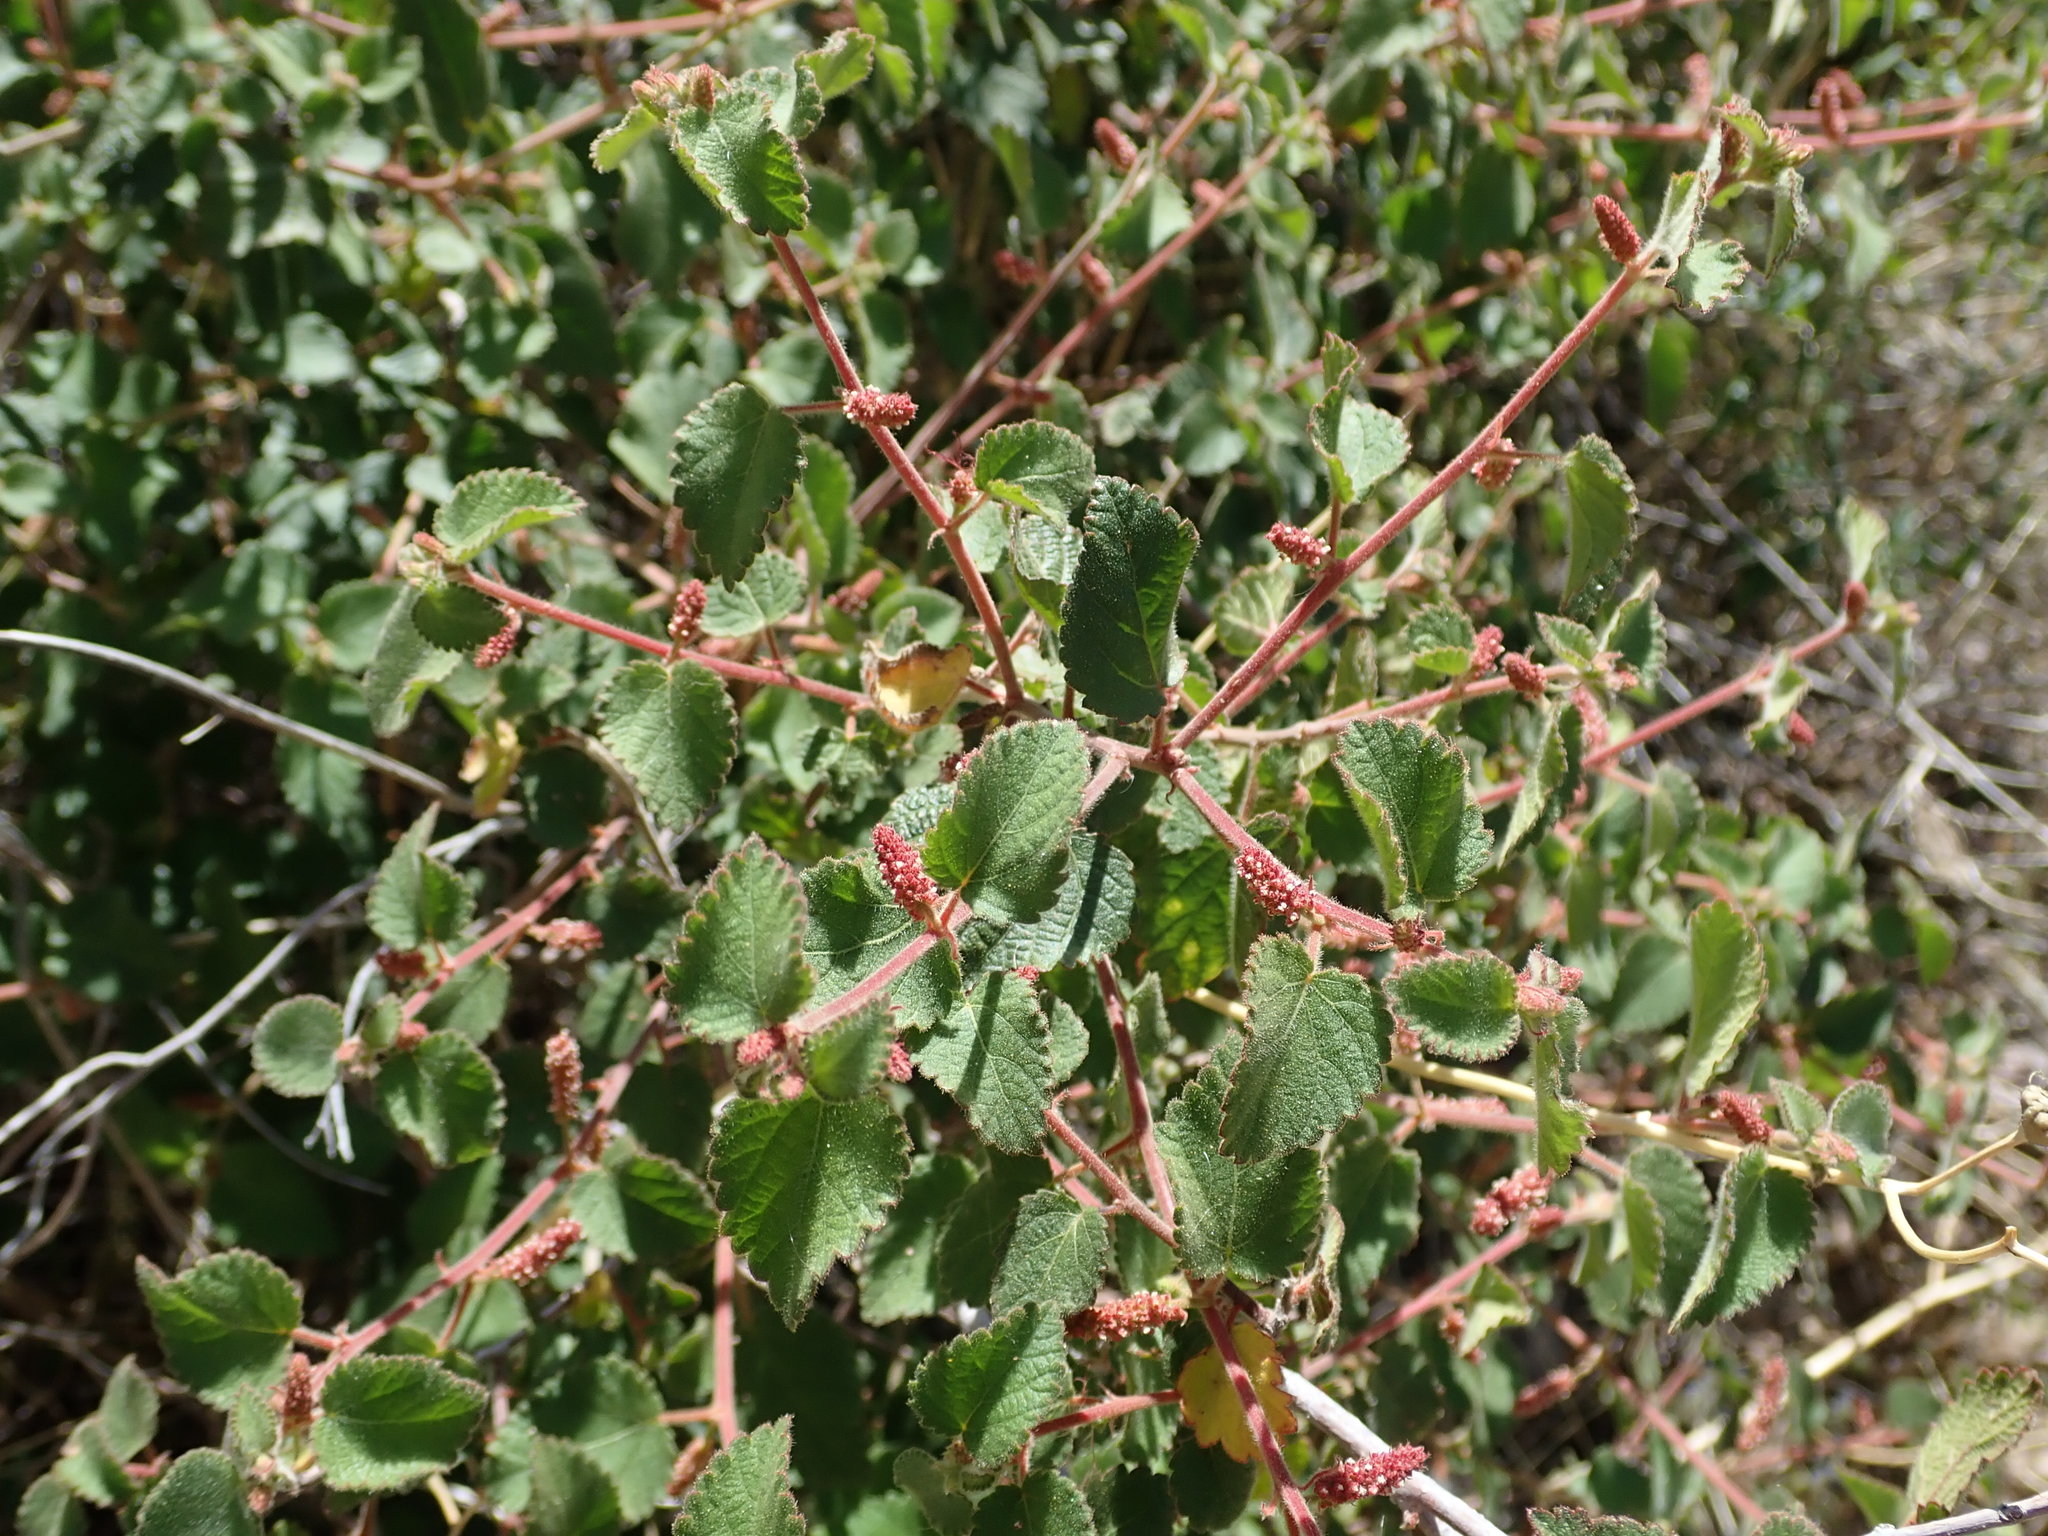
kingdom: Plantae
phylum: Tracheophyta
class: Magnoliopsida
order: Malpighiales
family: Euphorbiaceae
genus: Acalypha
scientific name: Acalypha californica
